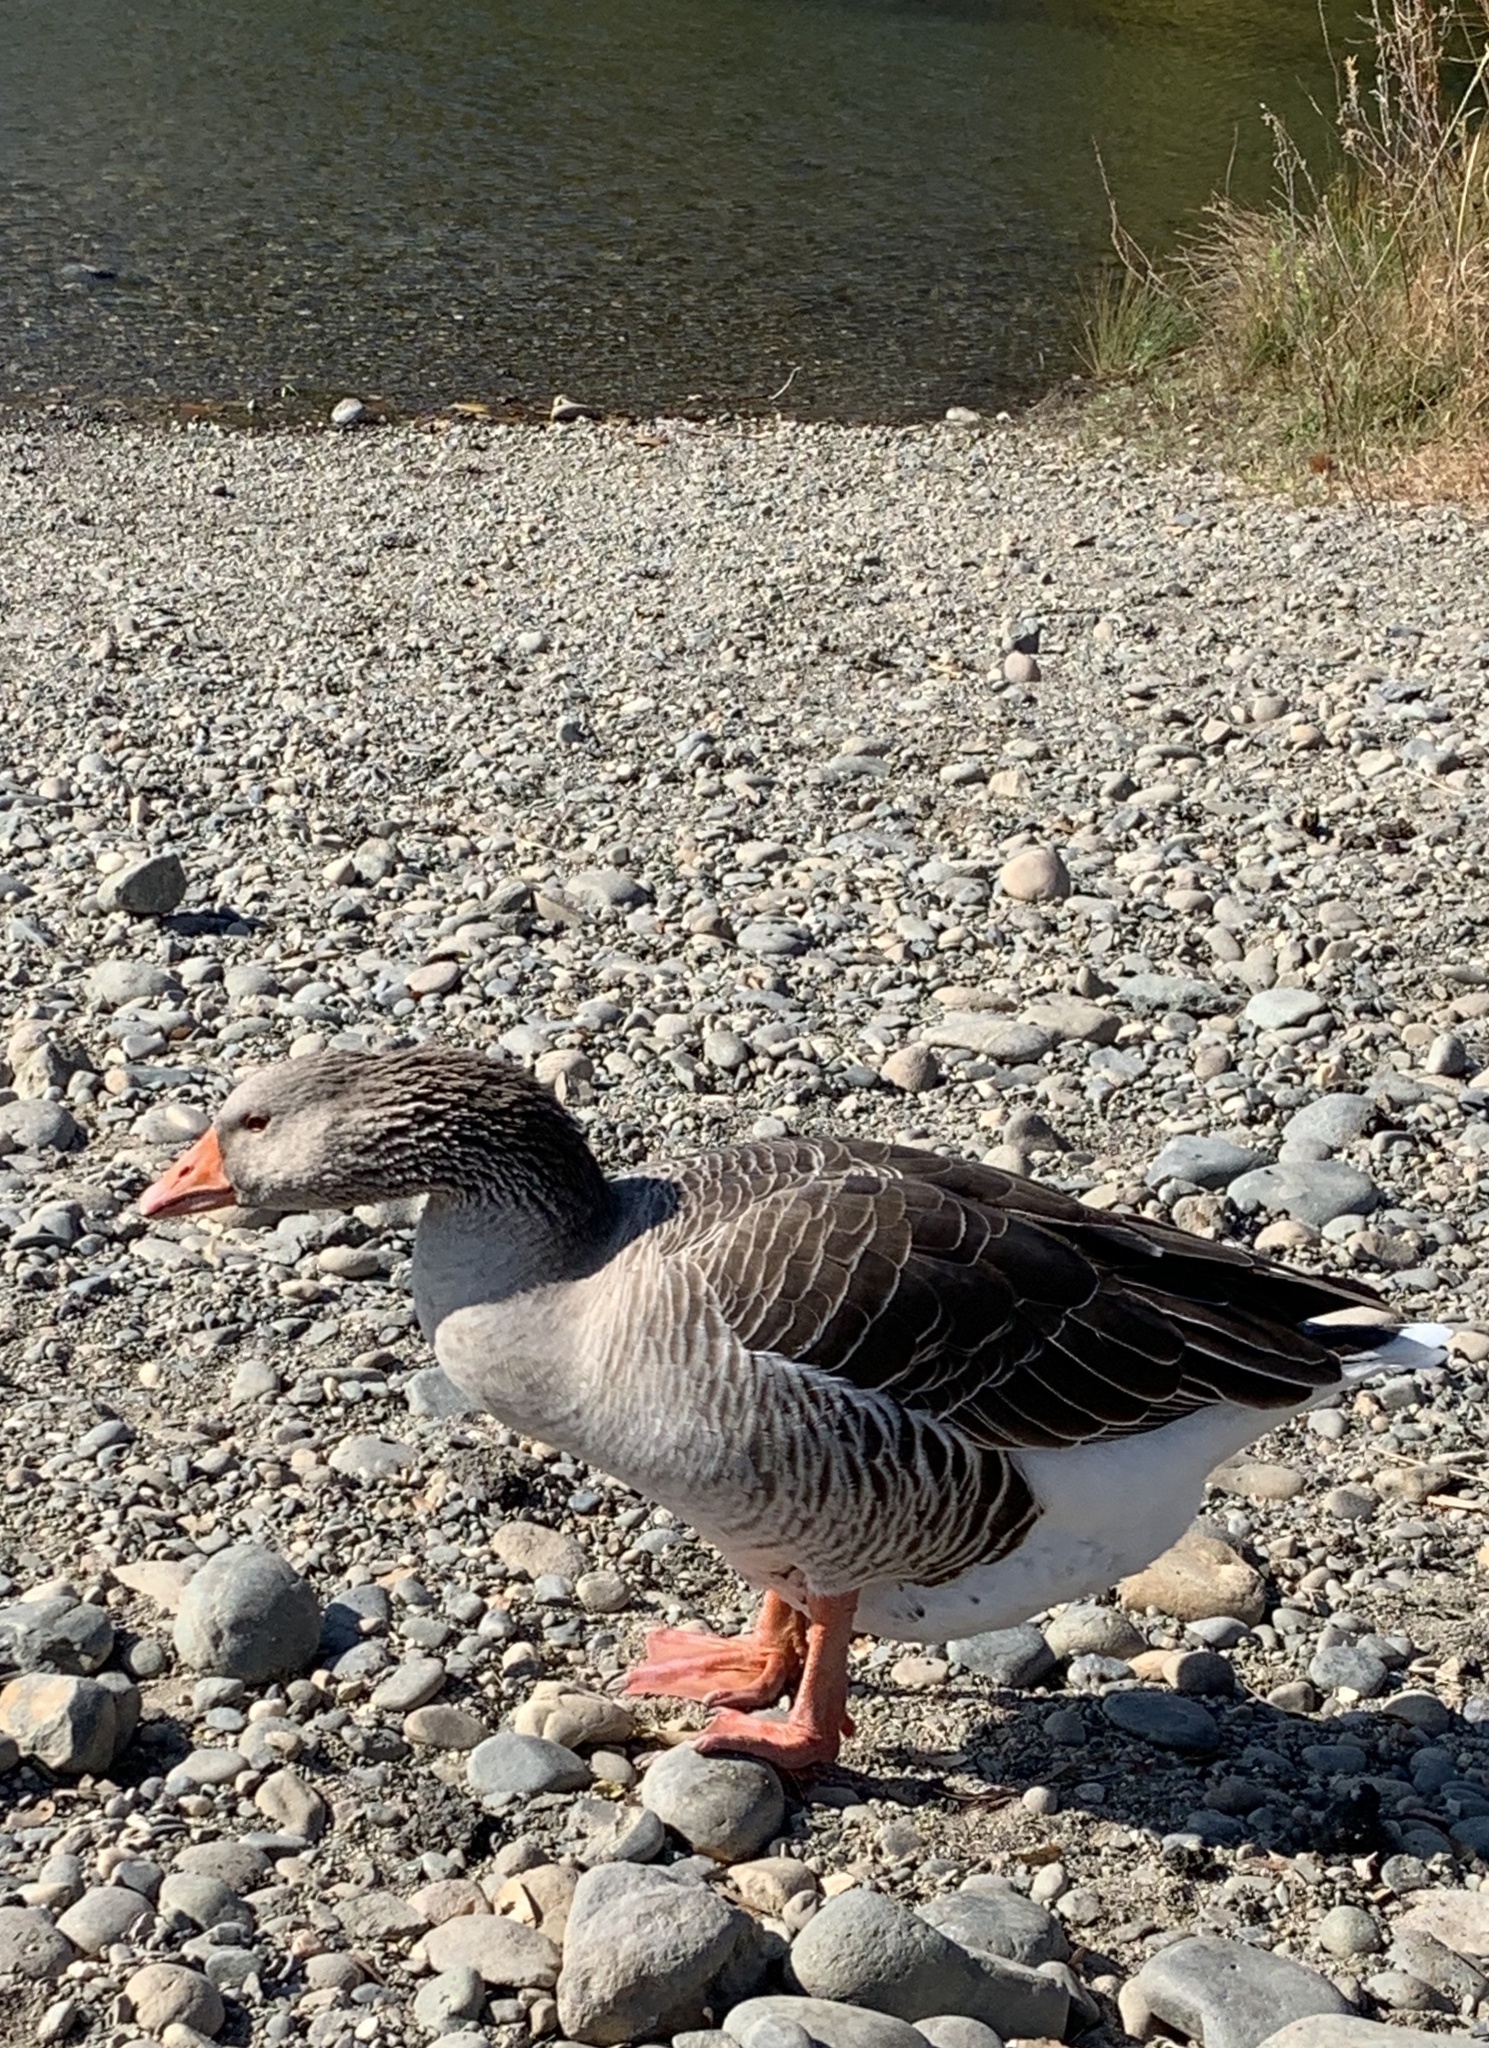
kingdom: Animalia
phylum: Chordata
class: Aves
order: Anseriformes
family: Anatidae
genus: Anser
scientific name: Anser anser
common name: Greylag goose
